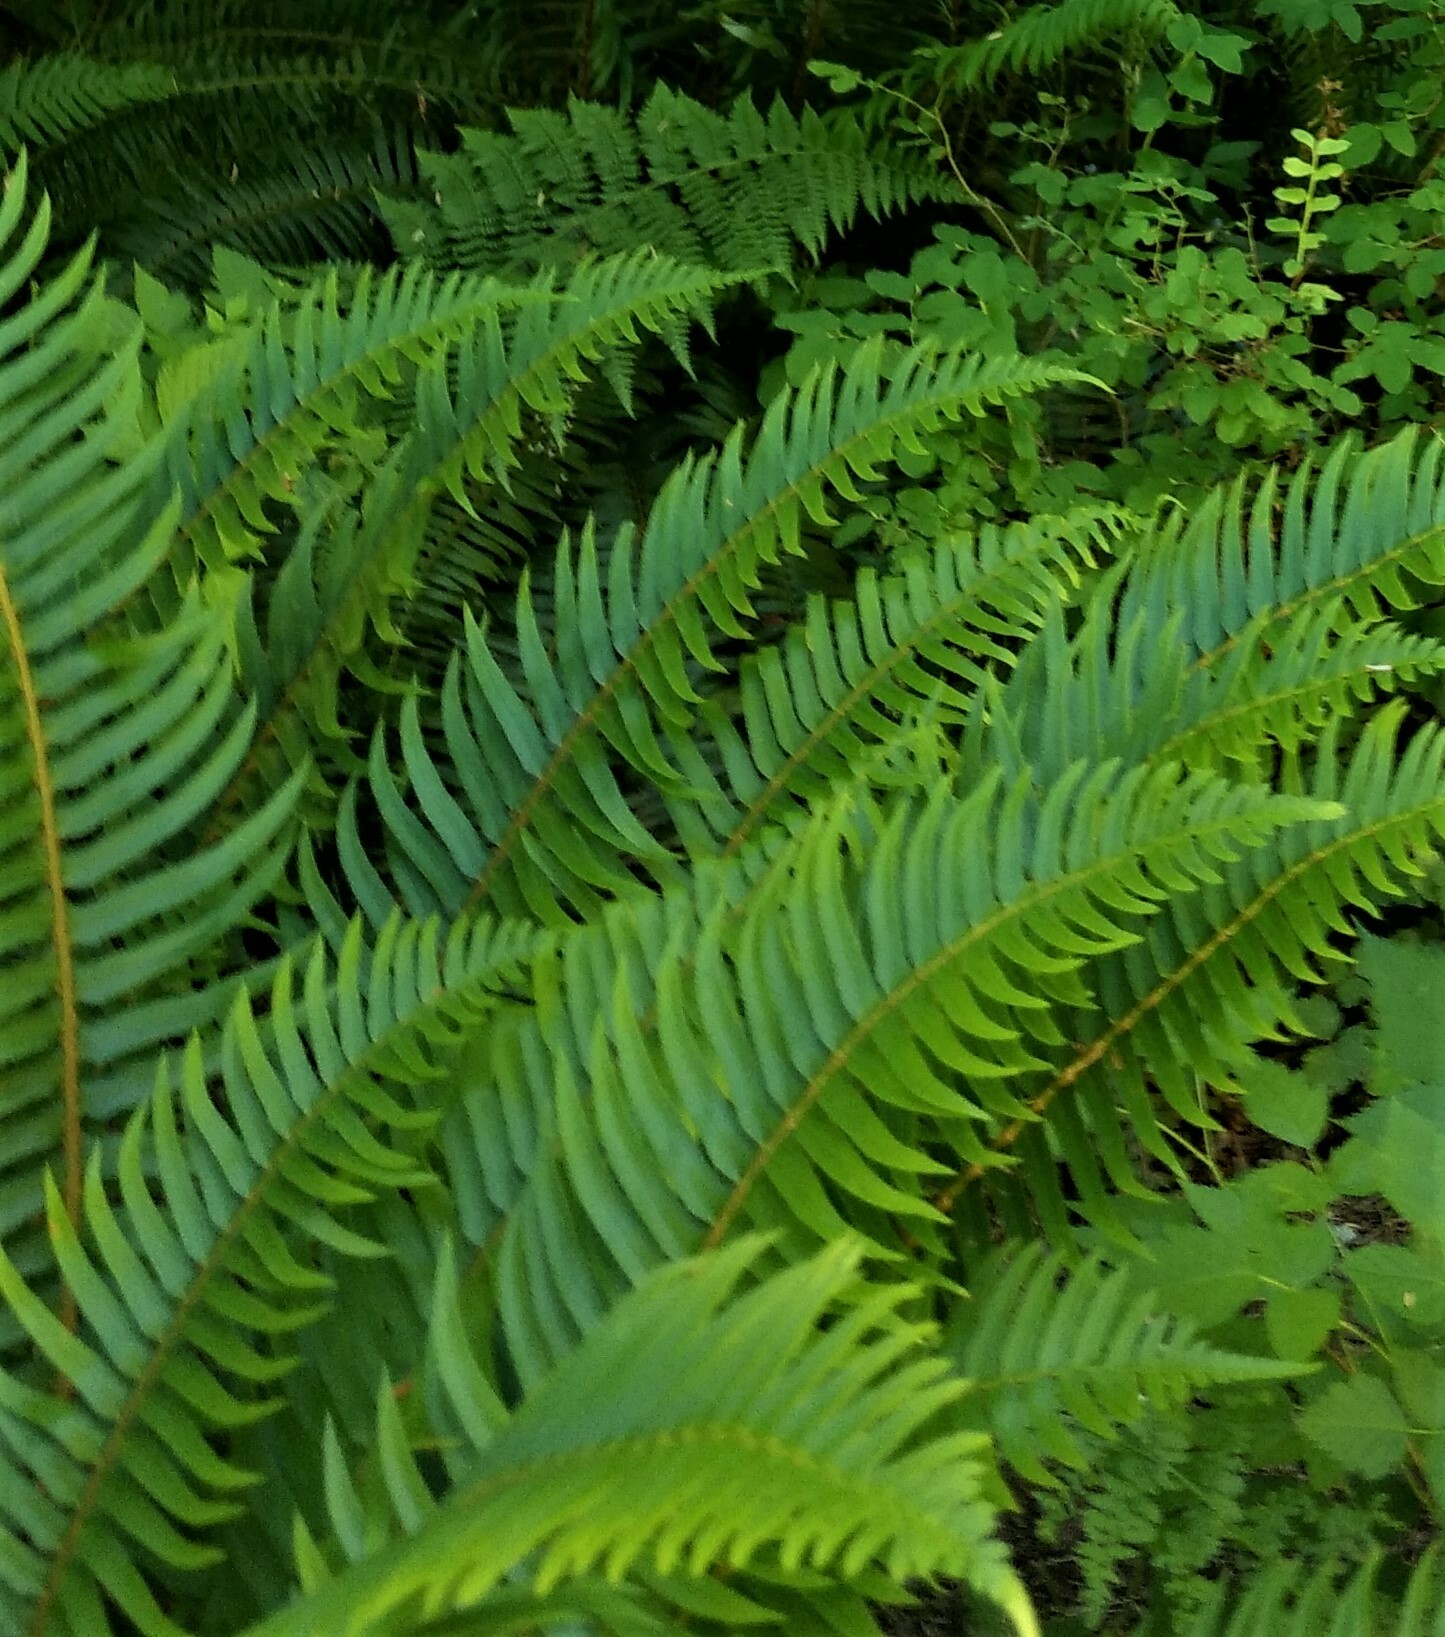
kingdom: Plantae
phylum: Tracheophyta
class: Polypodiopsida
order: Polypodiales
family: Dryopteridaceae
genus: Polystichum
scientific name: Polystichum munitum
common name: Western sword-fern
